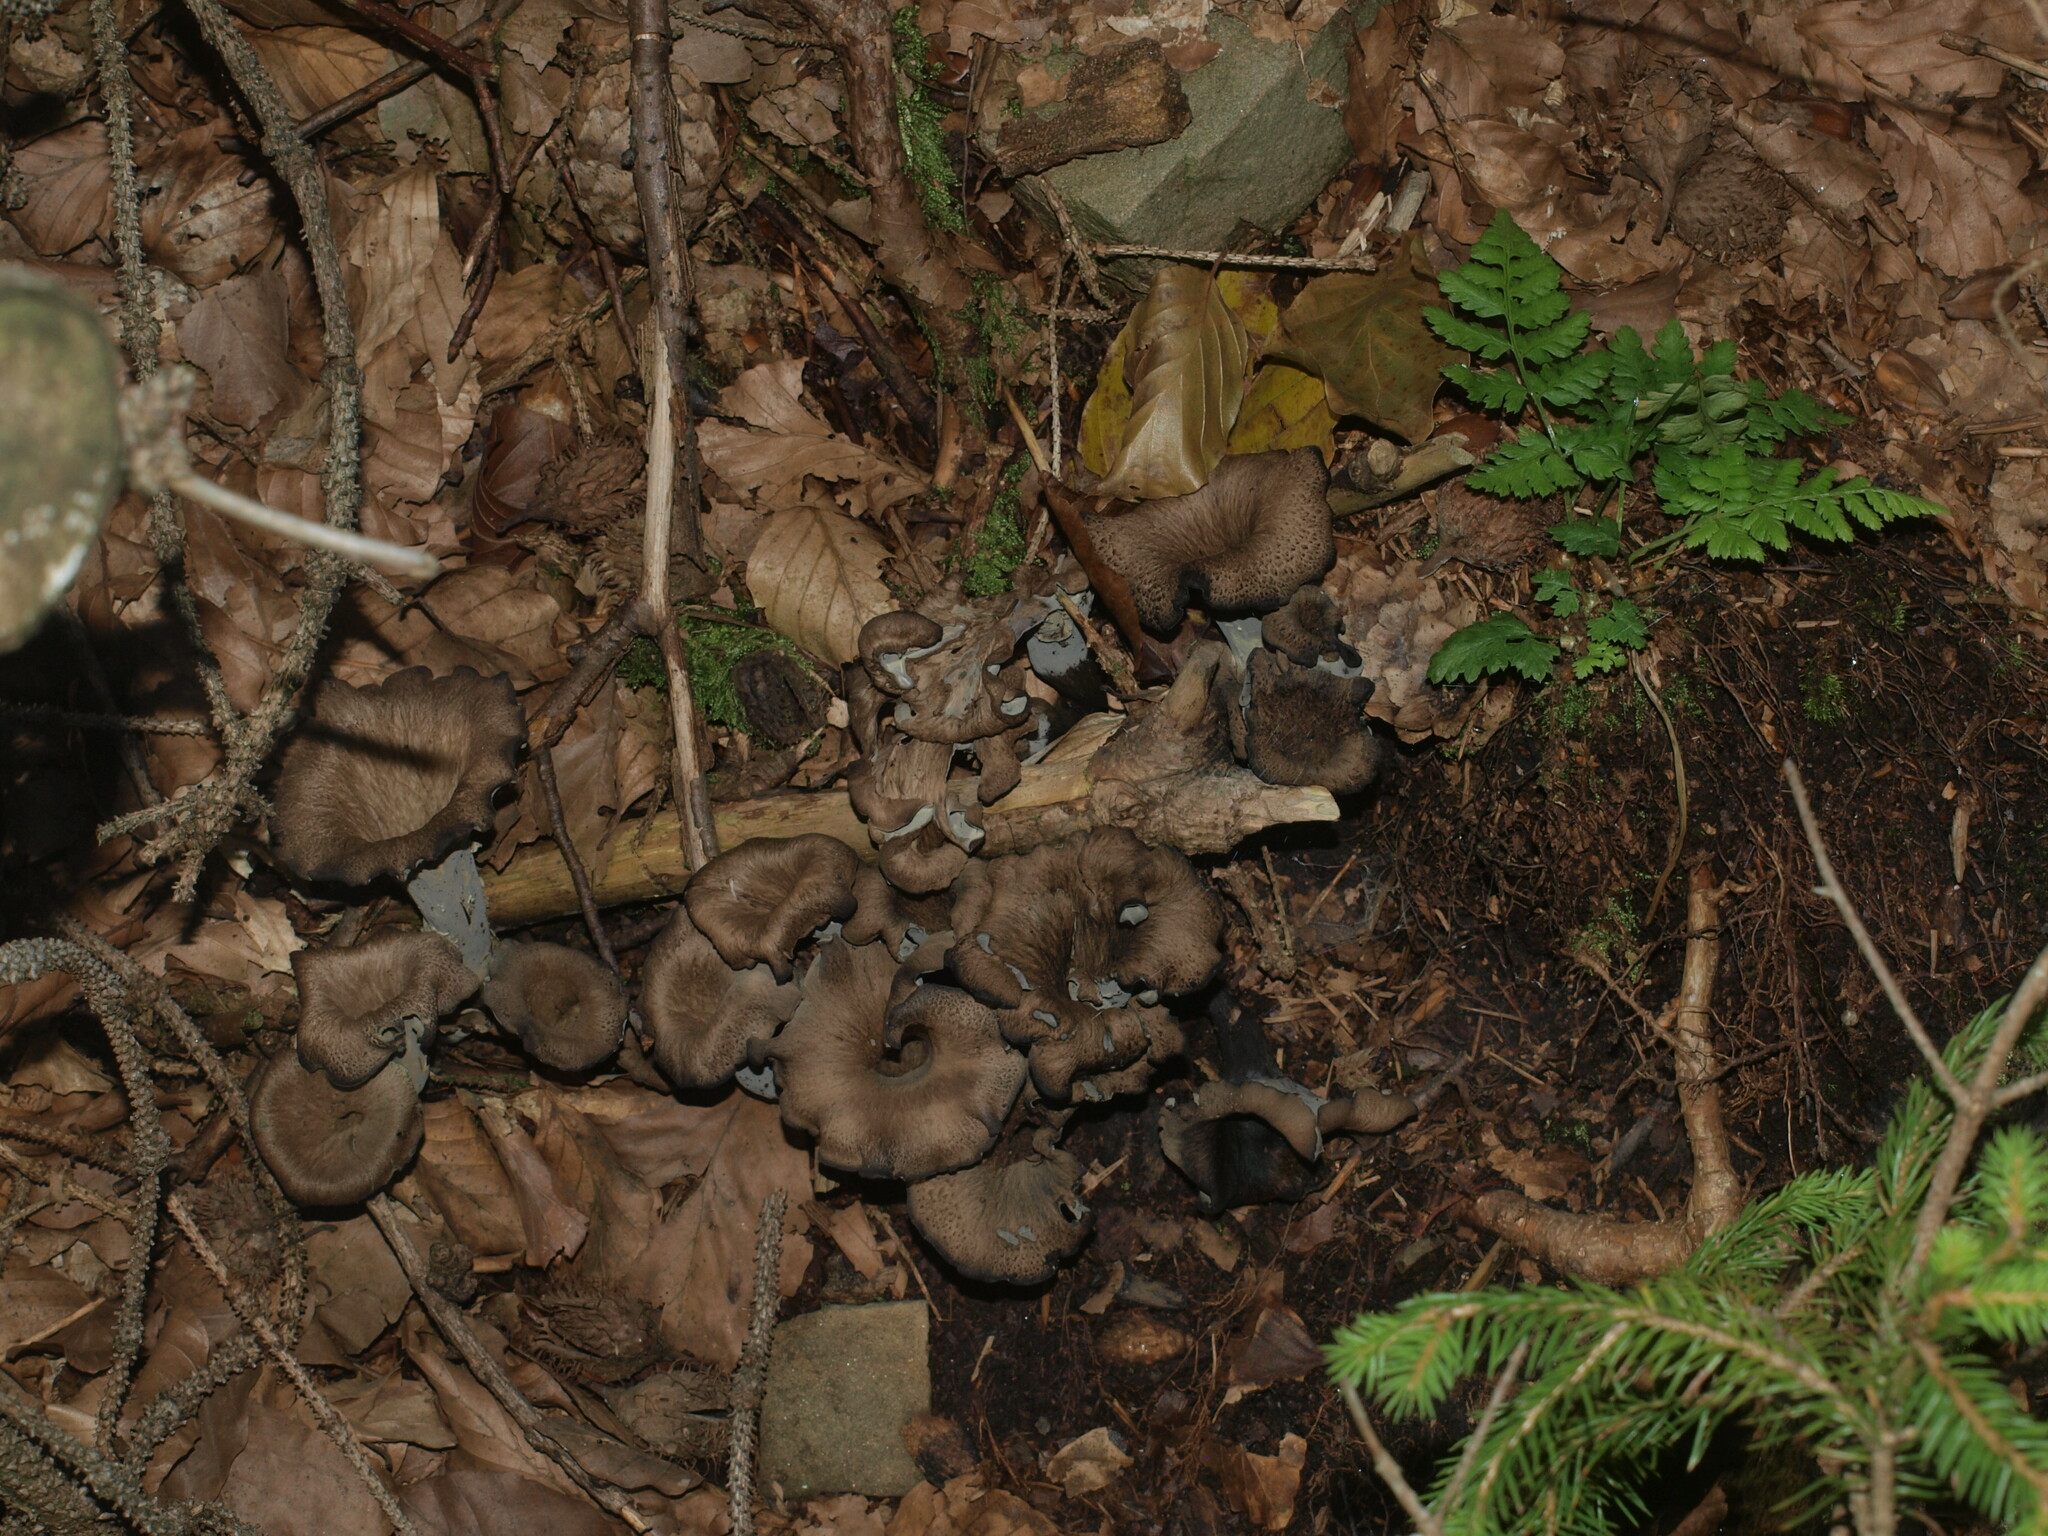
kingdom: Fungi
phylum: Basidiomycota
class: Agaricomycetes
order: Cantharellales
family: Hydnaceae
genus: Craterellus
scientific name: Craterellus cornucopioides
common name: Horn of plenty
